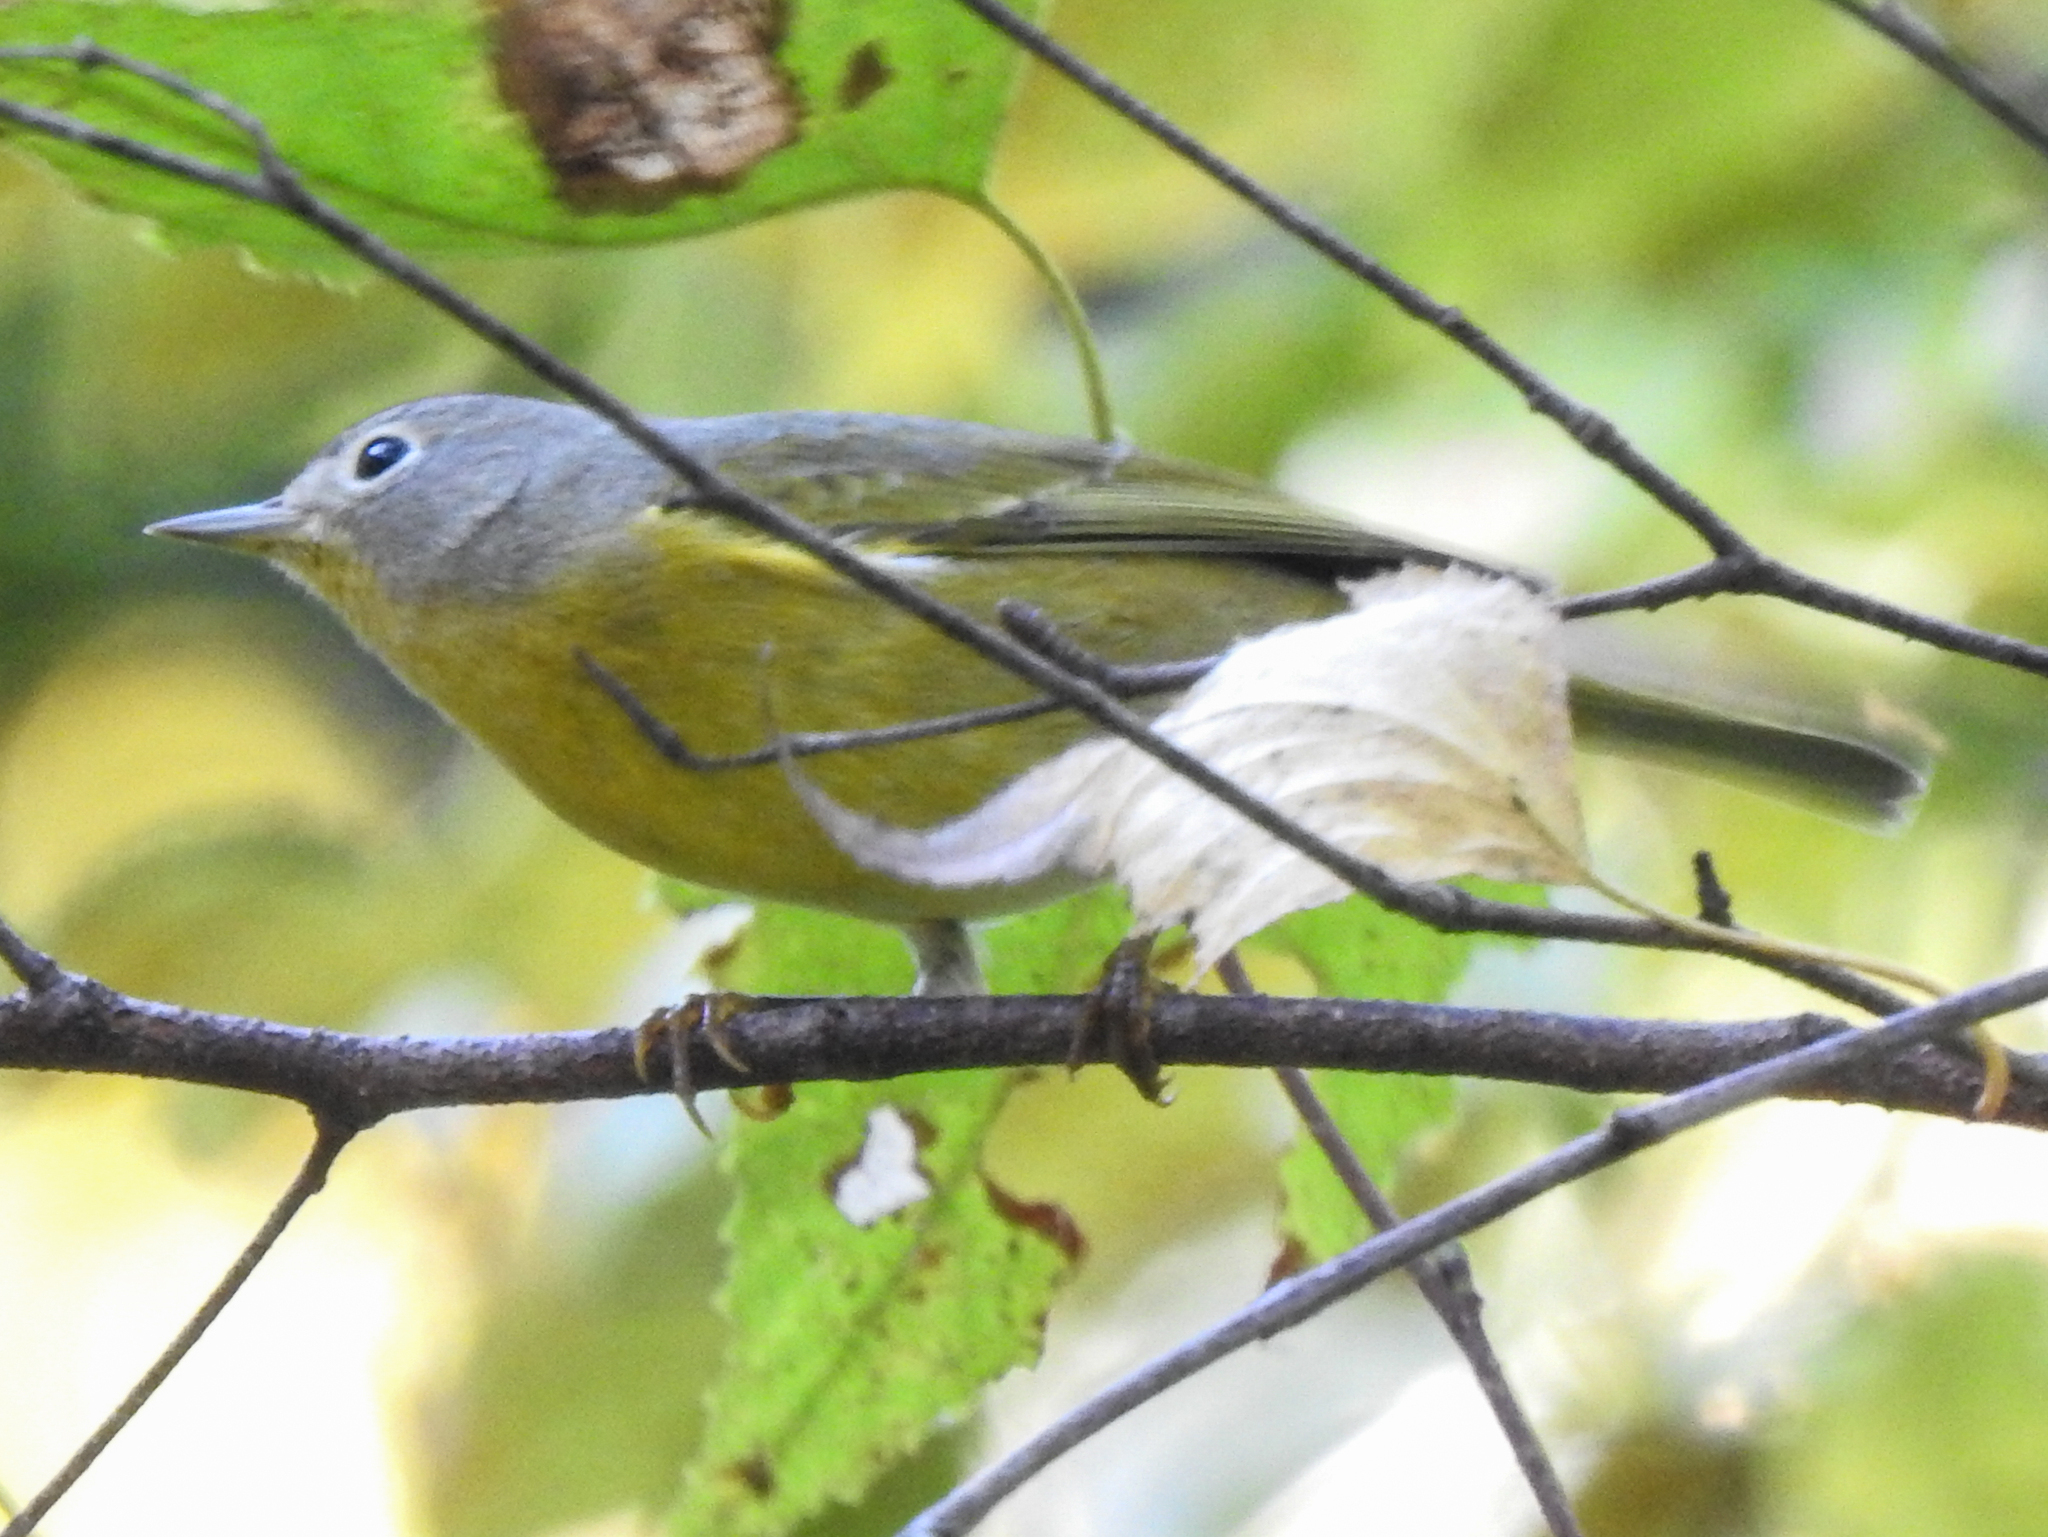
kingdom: Animalia
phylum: Chordata
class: Aves
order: Passeriformes
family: Parulidae
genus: Leiothlypis
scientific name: Leiothlypis ruficapilla
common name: Nashville warbler
